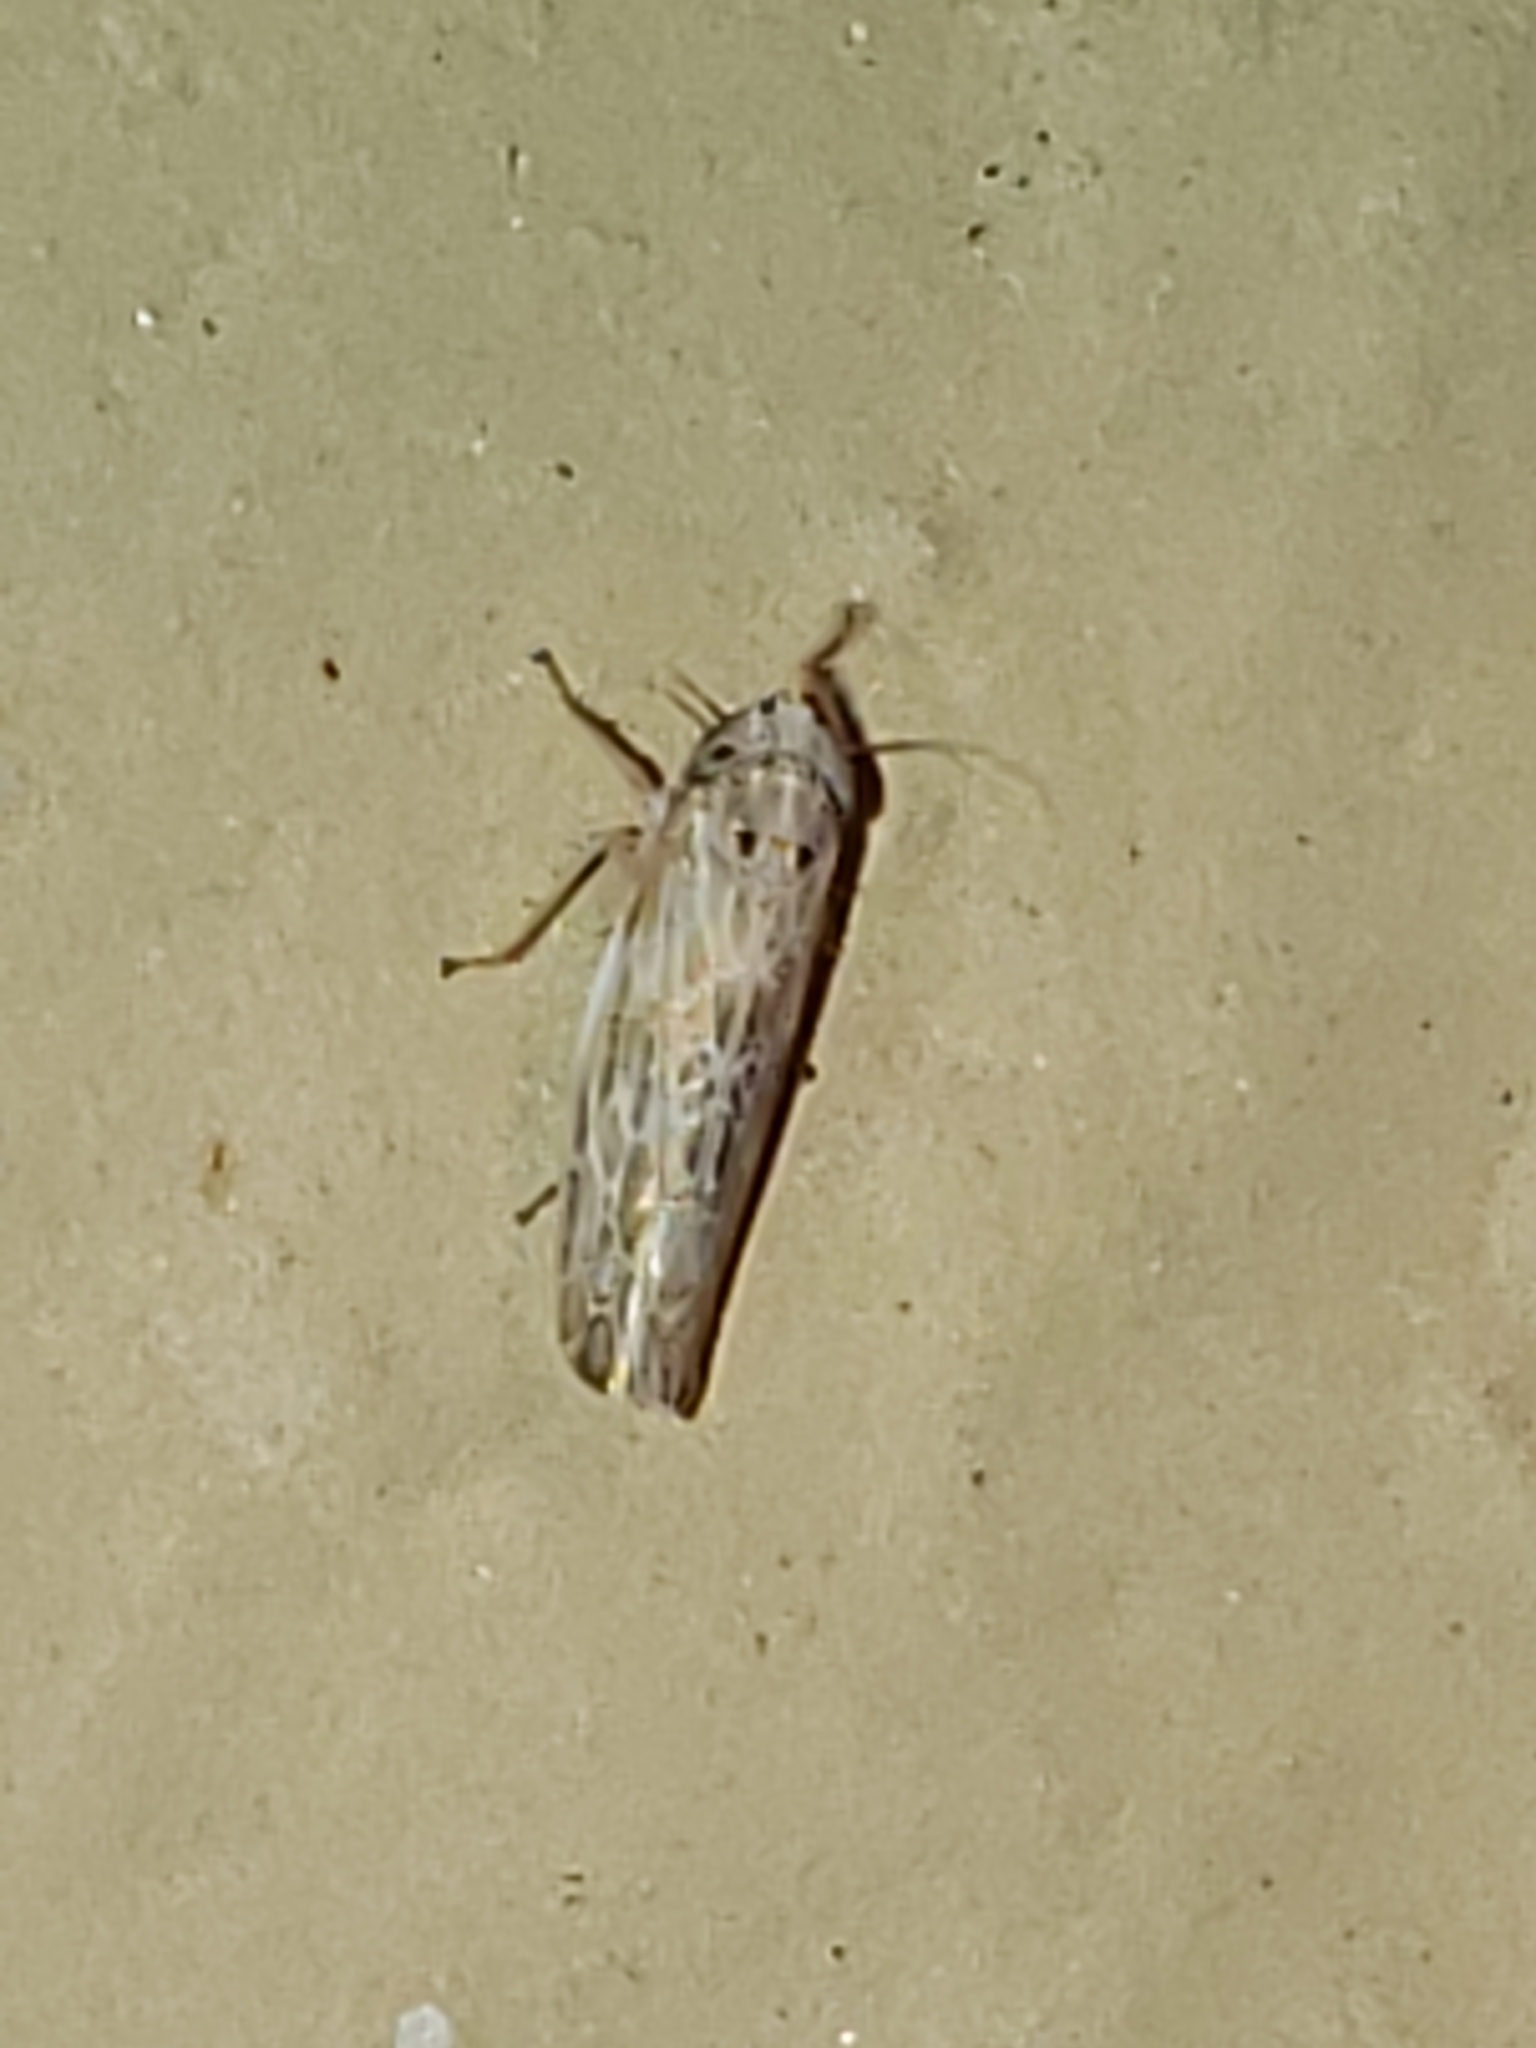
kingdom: Animalia
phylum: Arthropoda
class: Insecta
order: Hemiptera
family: Cicadellidae
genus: Endria
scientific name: Endria inimicus
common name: Painted leafhopper
